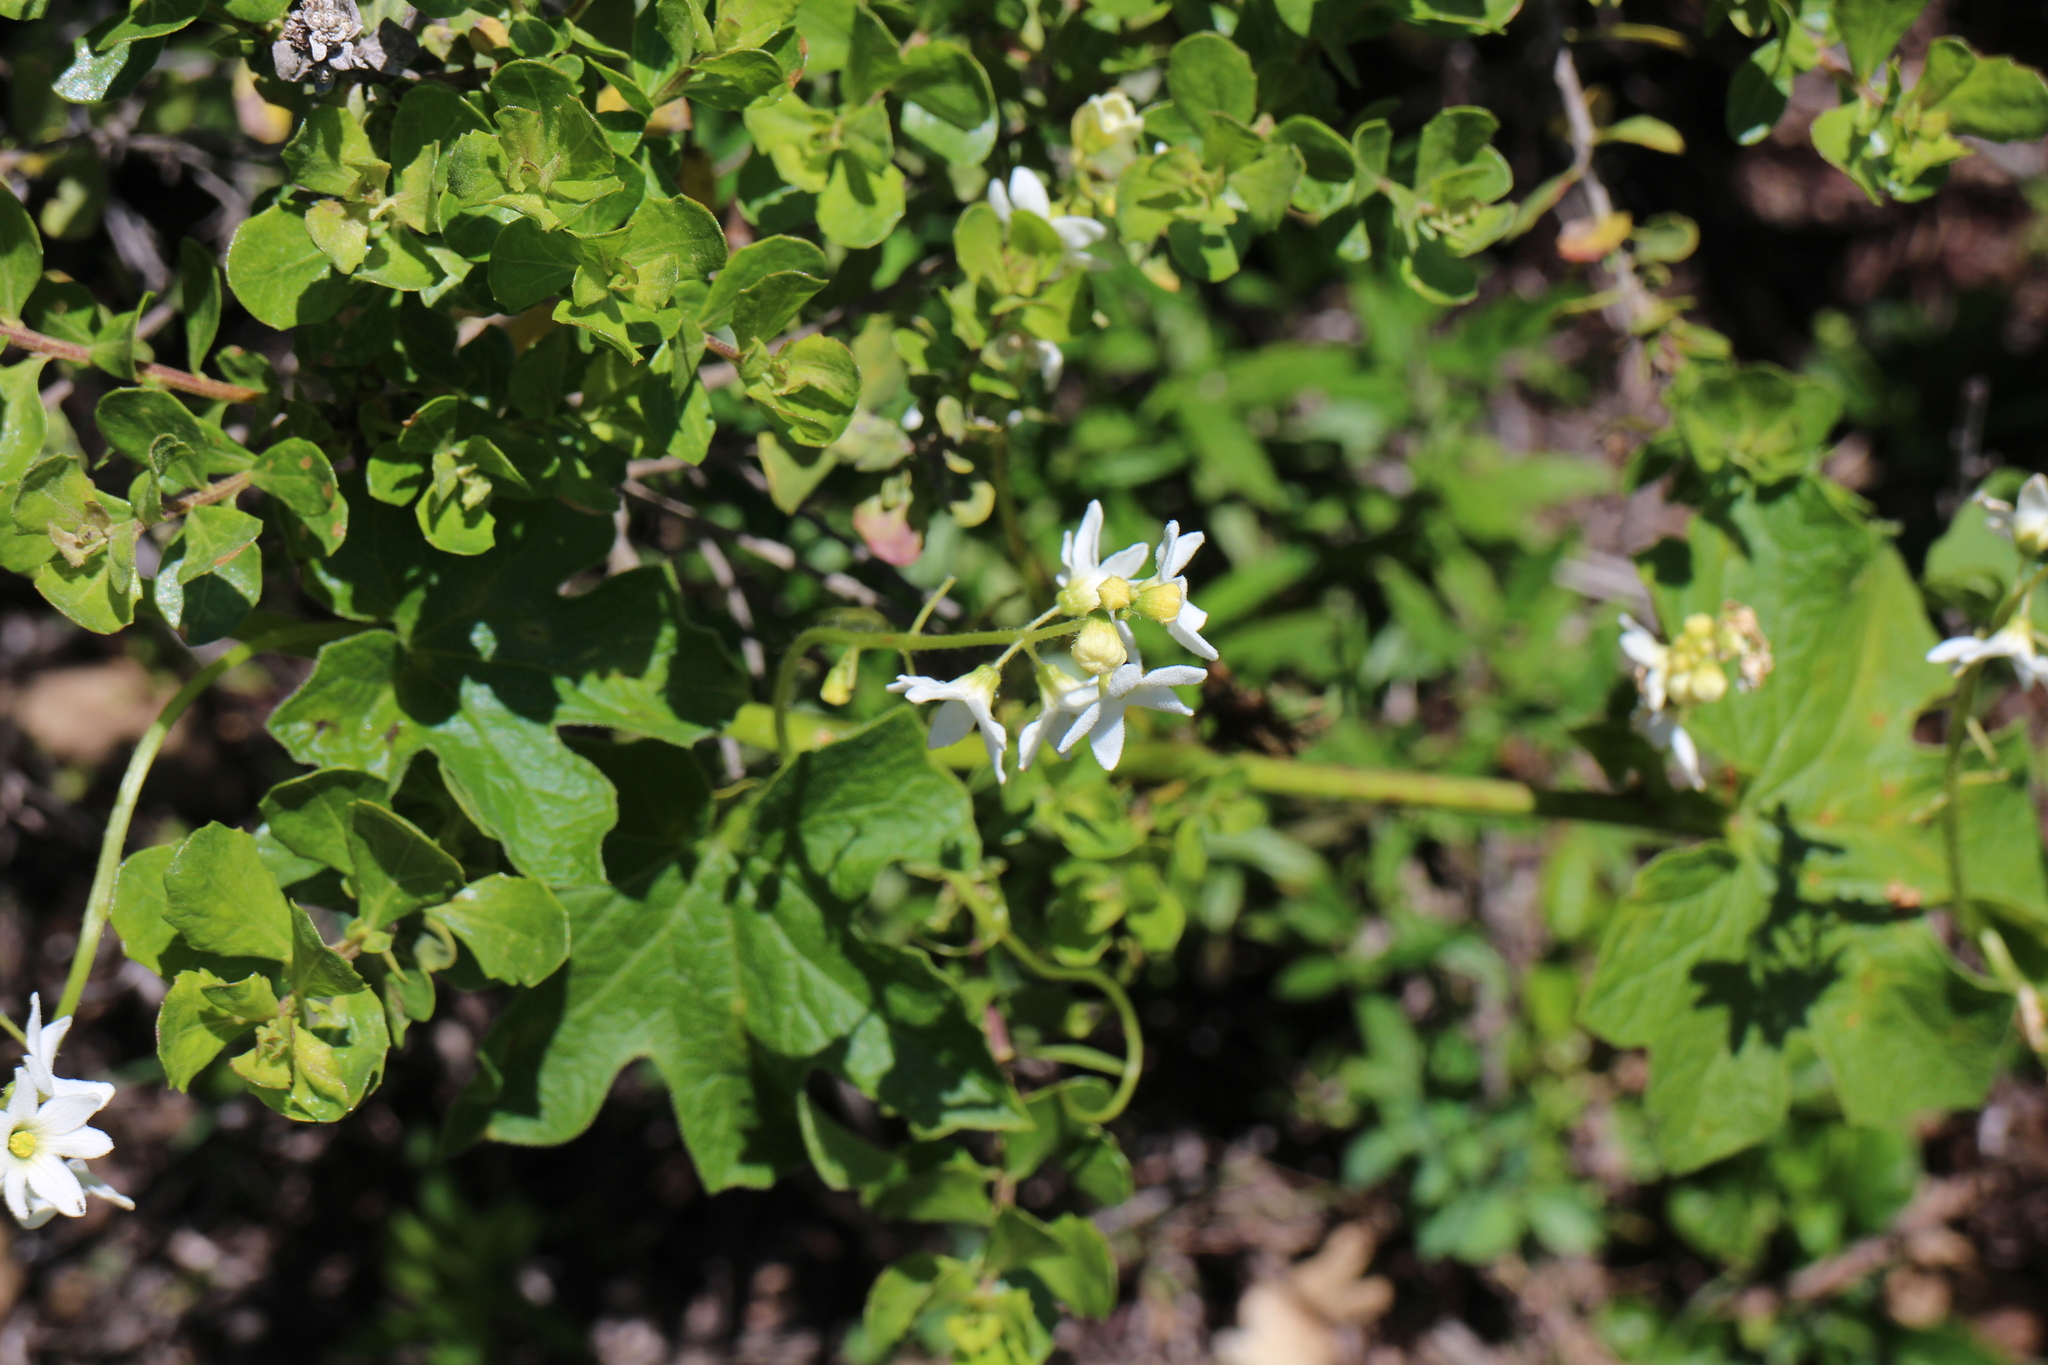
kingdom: Plantae
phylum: Tracheophyta
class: Magnoliopsida
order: Cucurbitales
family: Cucurbitaceae
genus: Marah
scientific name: Marah oregana
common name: Coastal manroot
